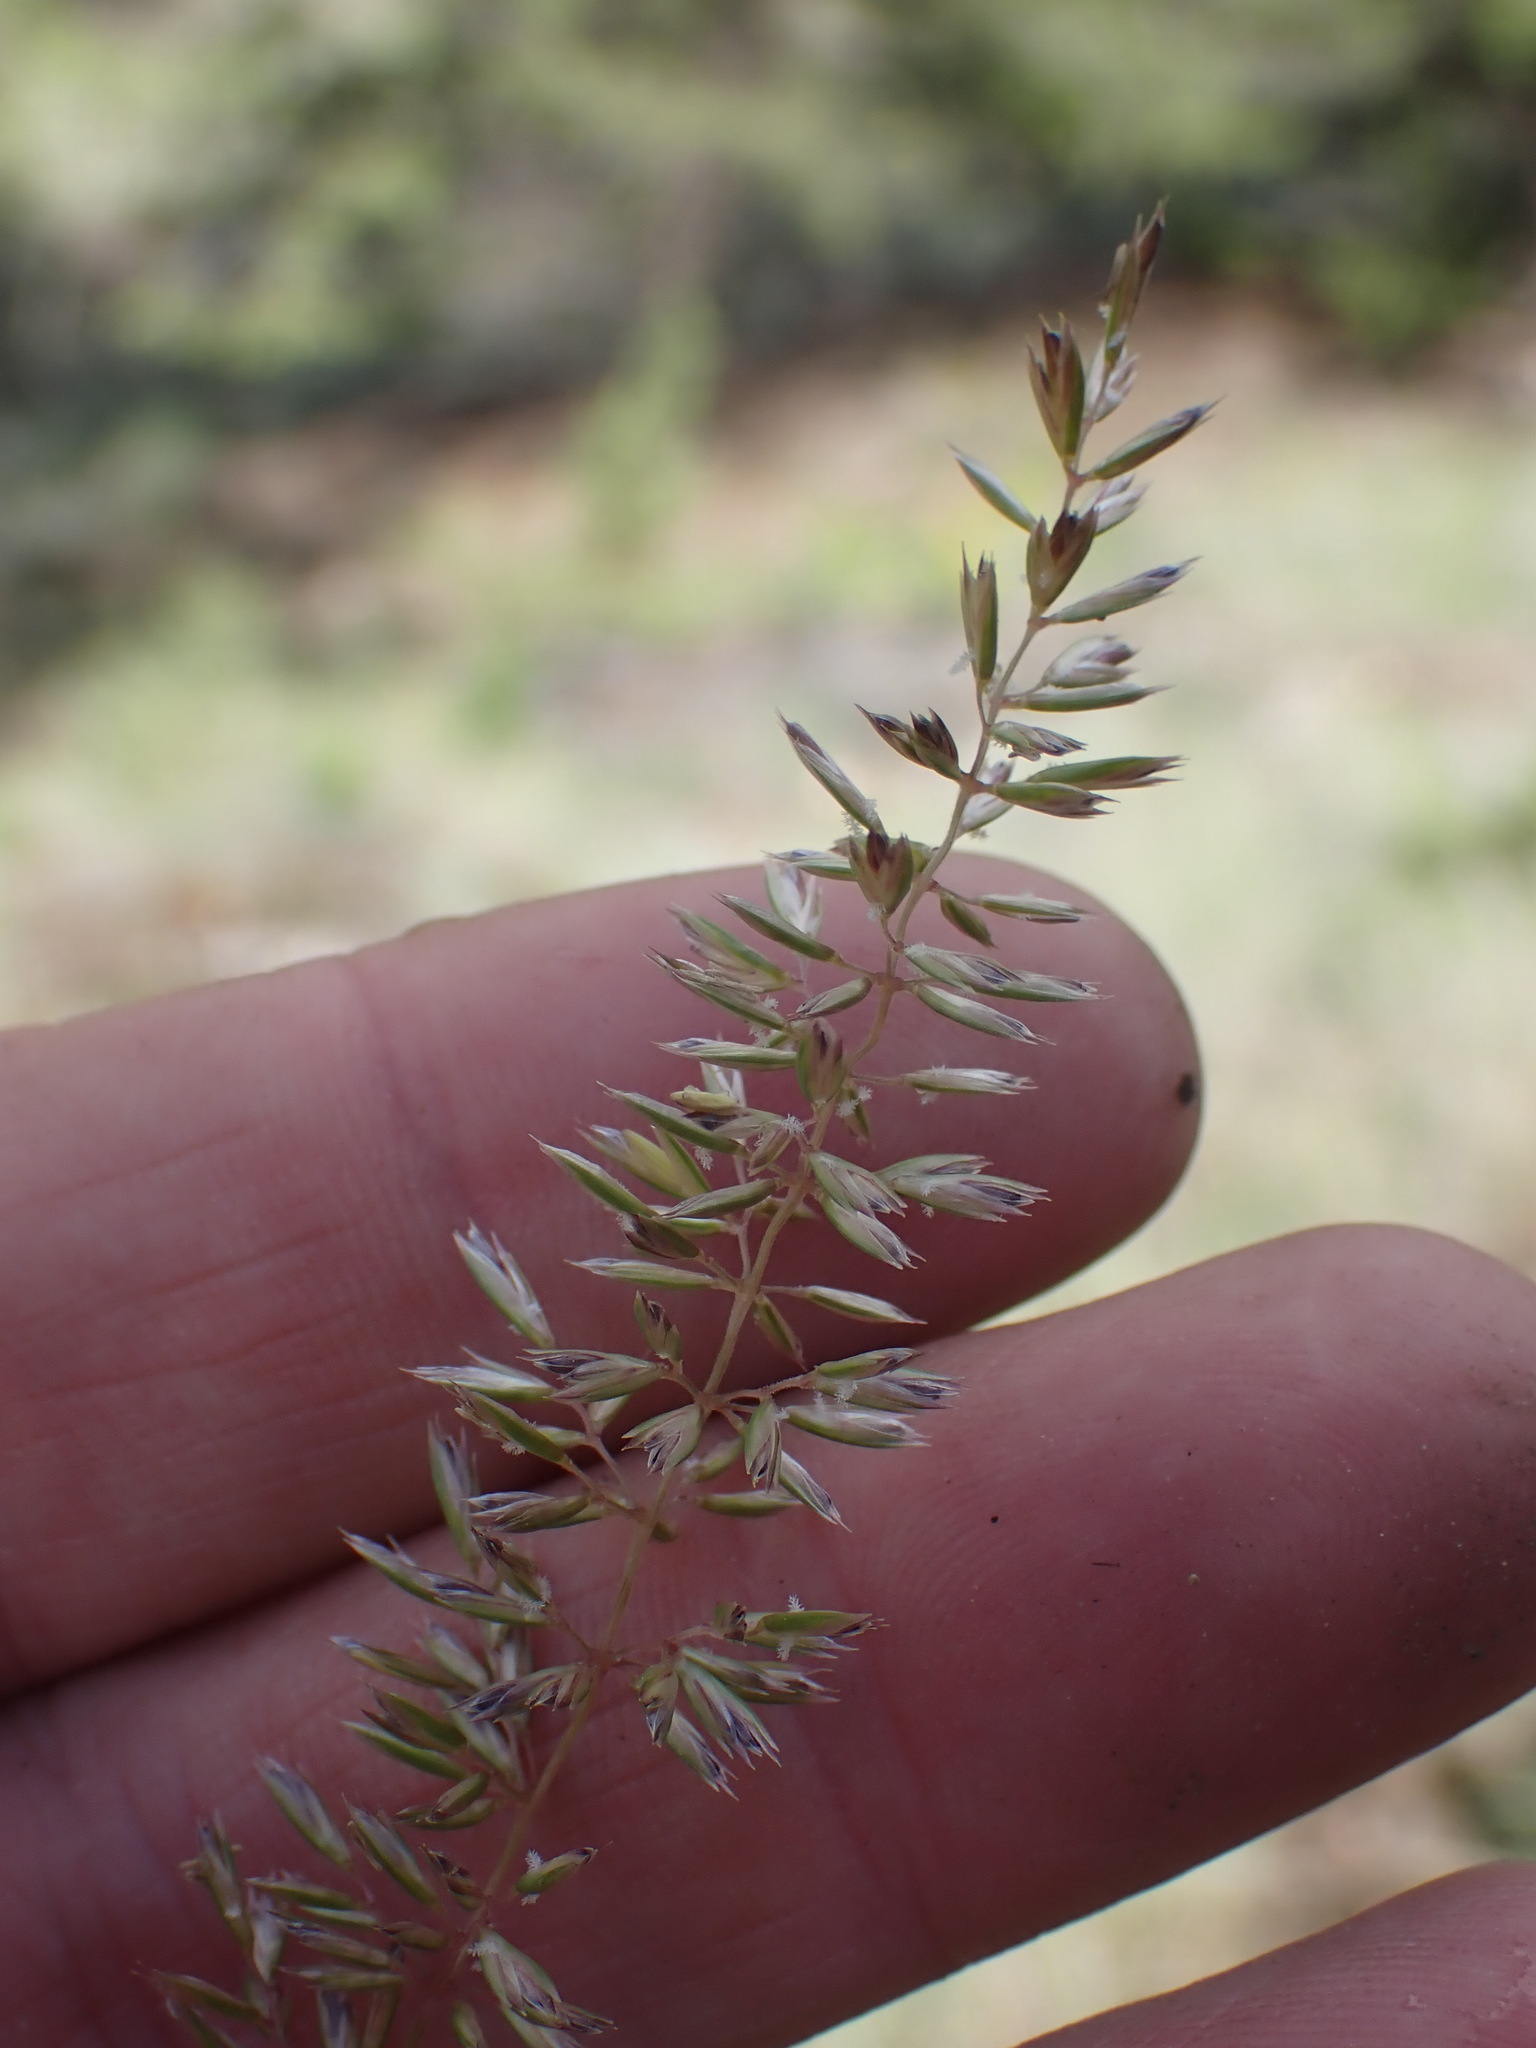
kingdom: Plantae
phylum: Tracheophyta
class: Liliopsida
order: Poales
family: Poaceae
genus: Koeleria
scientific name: Koeleria macrantha
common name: Crested hair-grass
